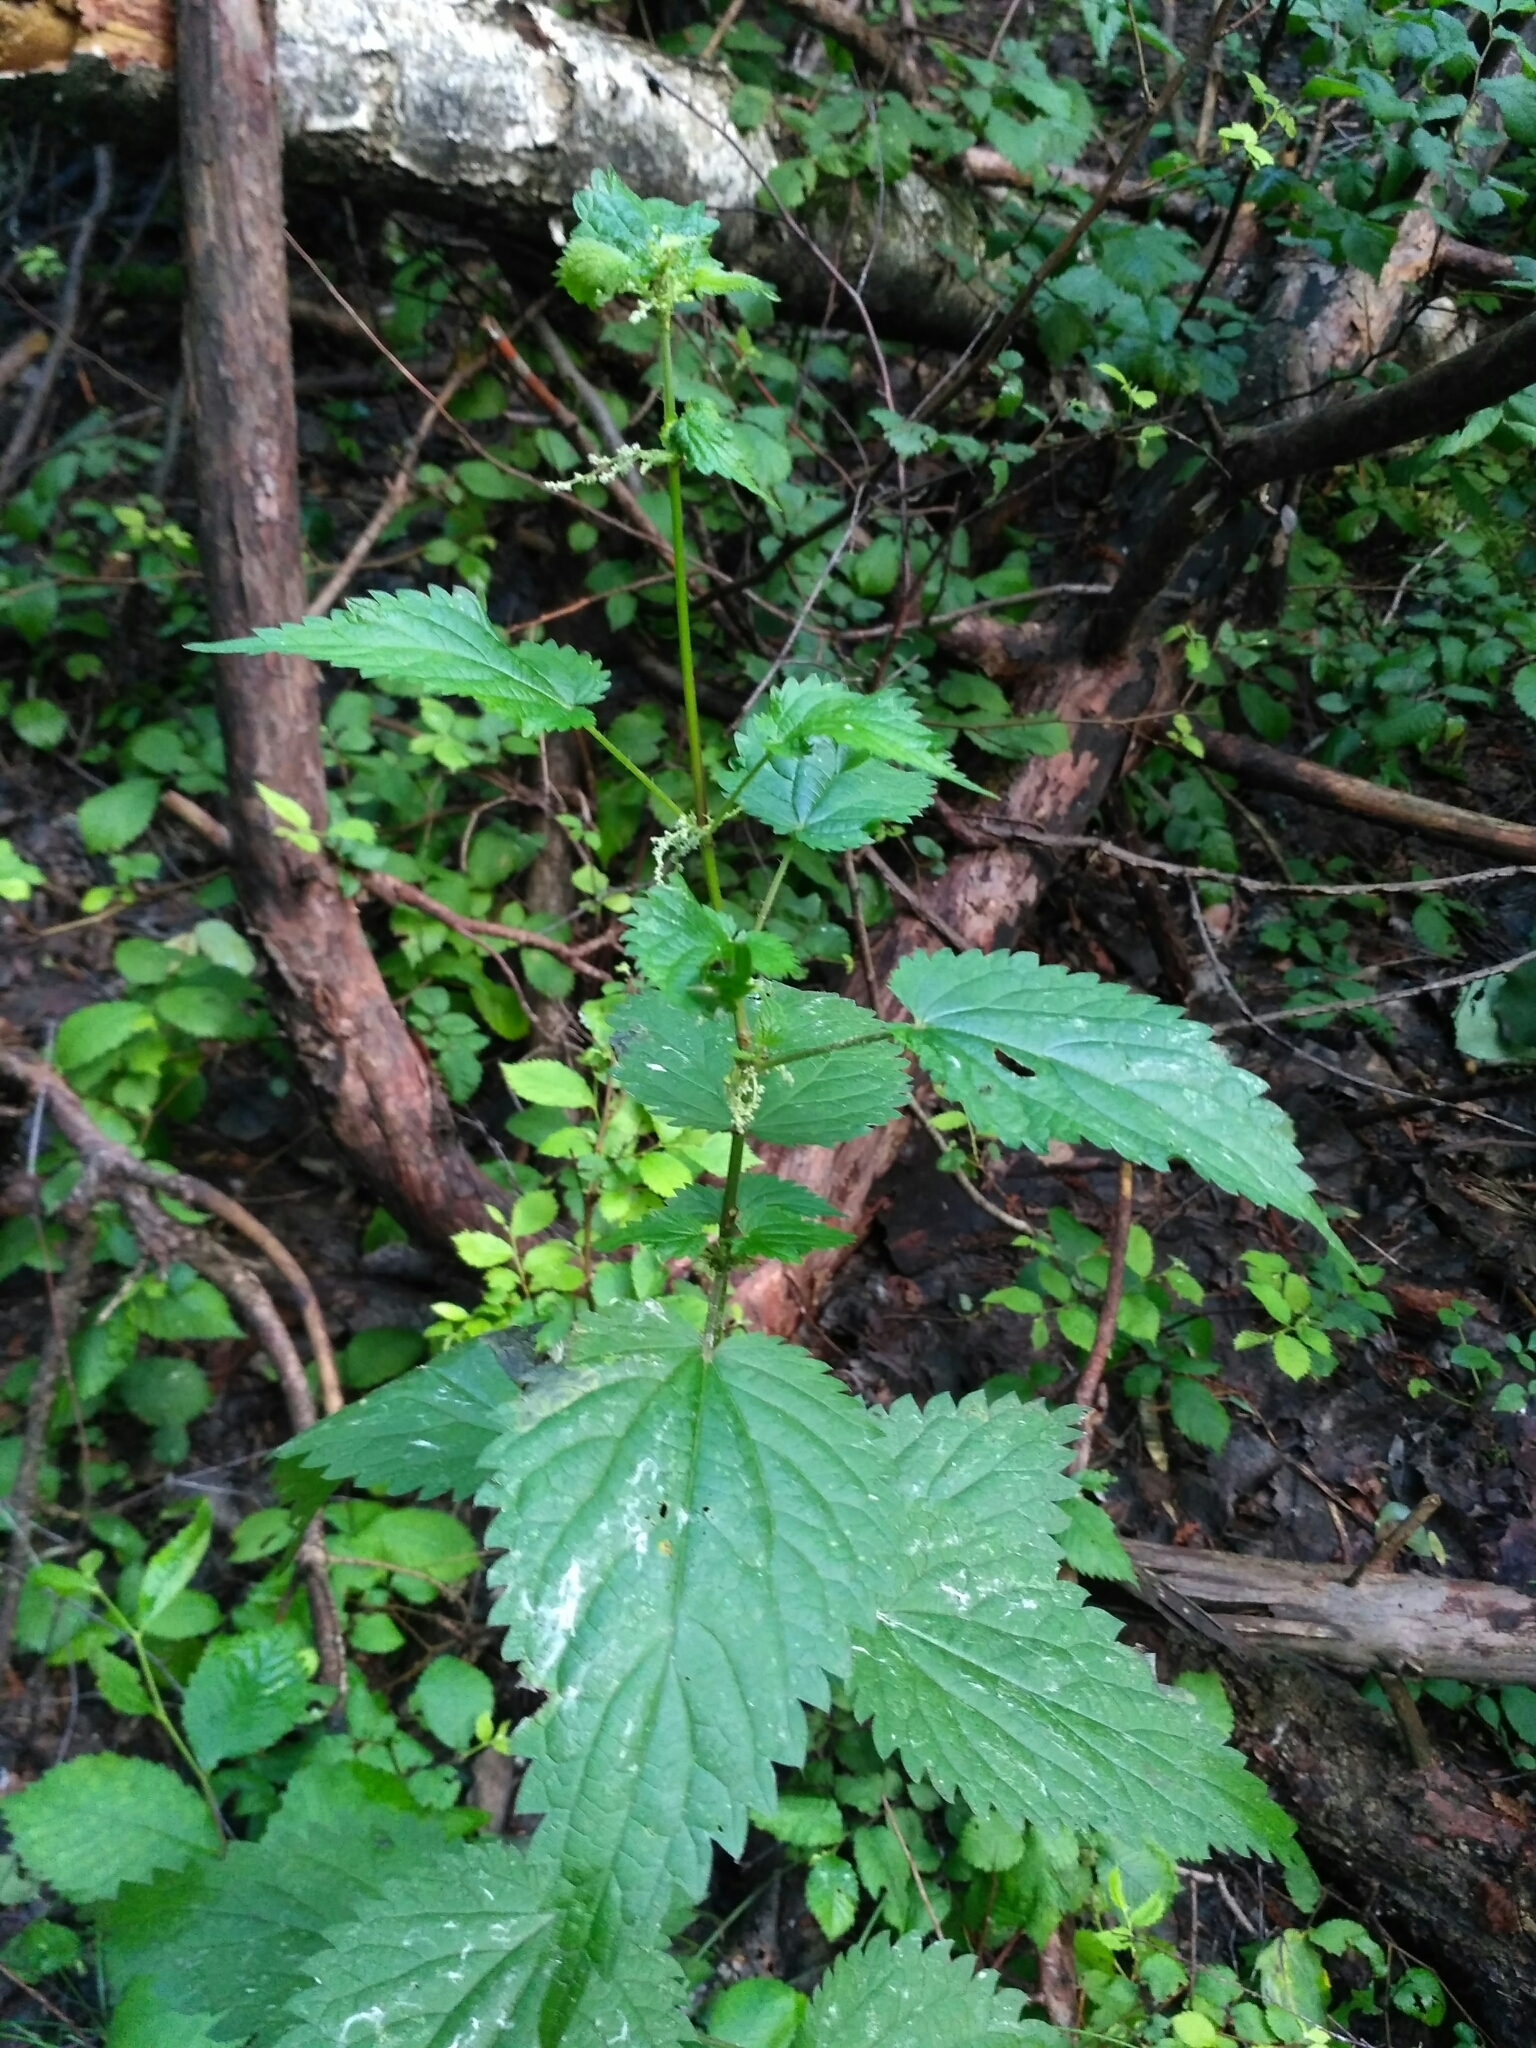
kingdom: Plantae
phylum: Tracheophyta
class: Magnoliopsida
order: Rosales
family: Urticaceae
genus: Urtica
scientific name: Urtica dioica
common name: Common nettle
